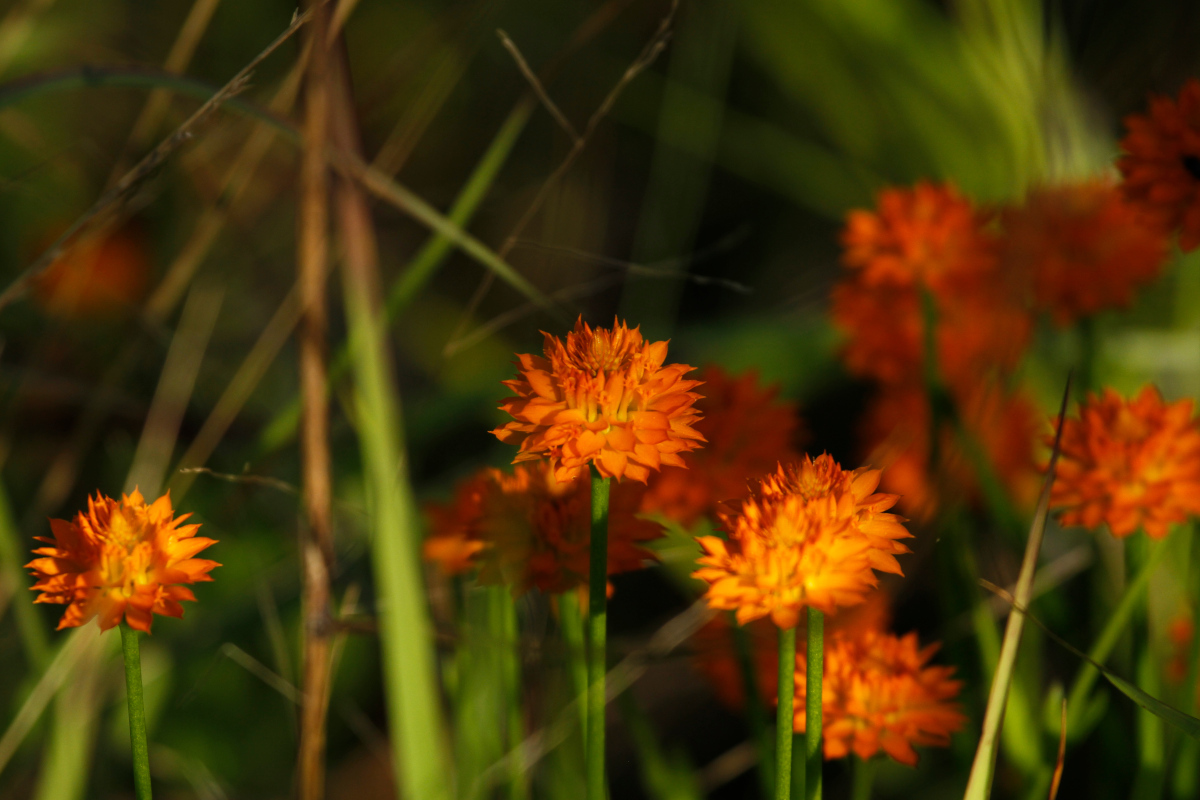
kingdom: Plantae
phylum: Tracheophyta
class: Magnoliopsida
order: Fabales
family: Polygalaceae
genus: Polygala
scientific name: Polygala lutea
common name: Orange milkwort
